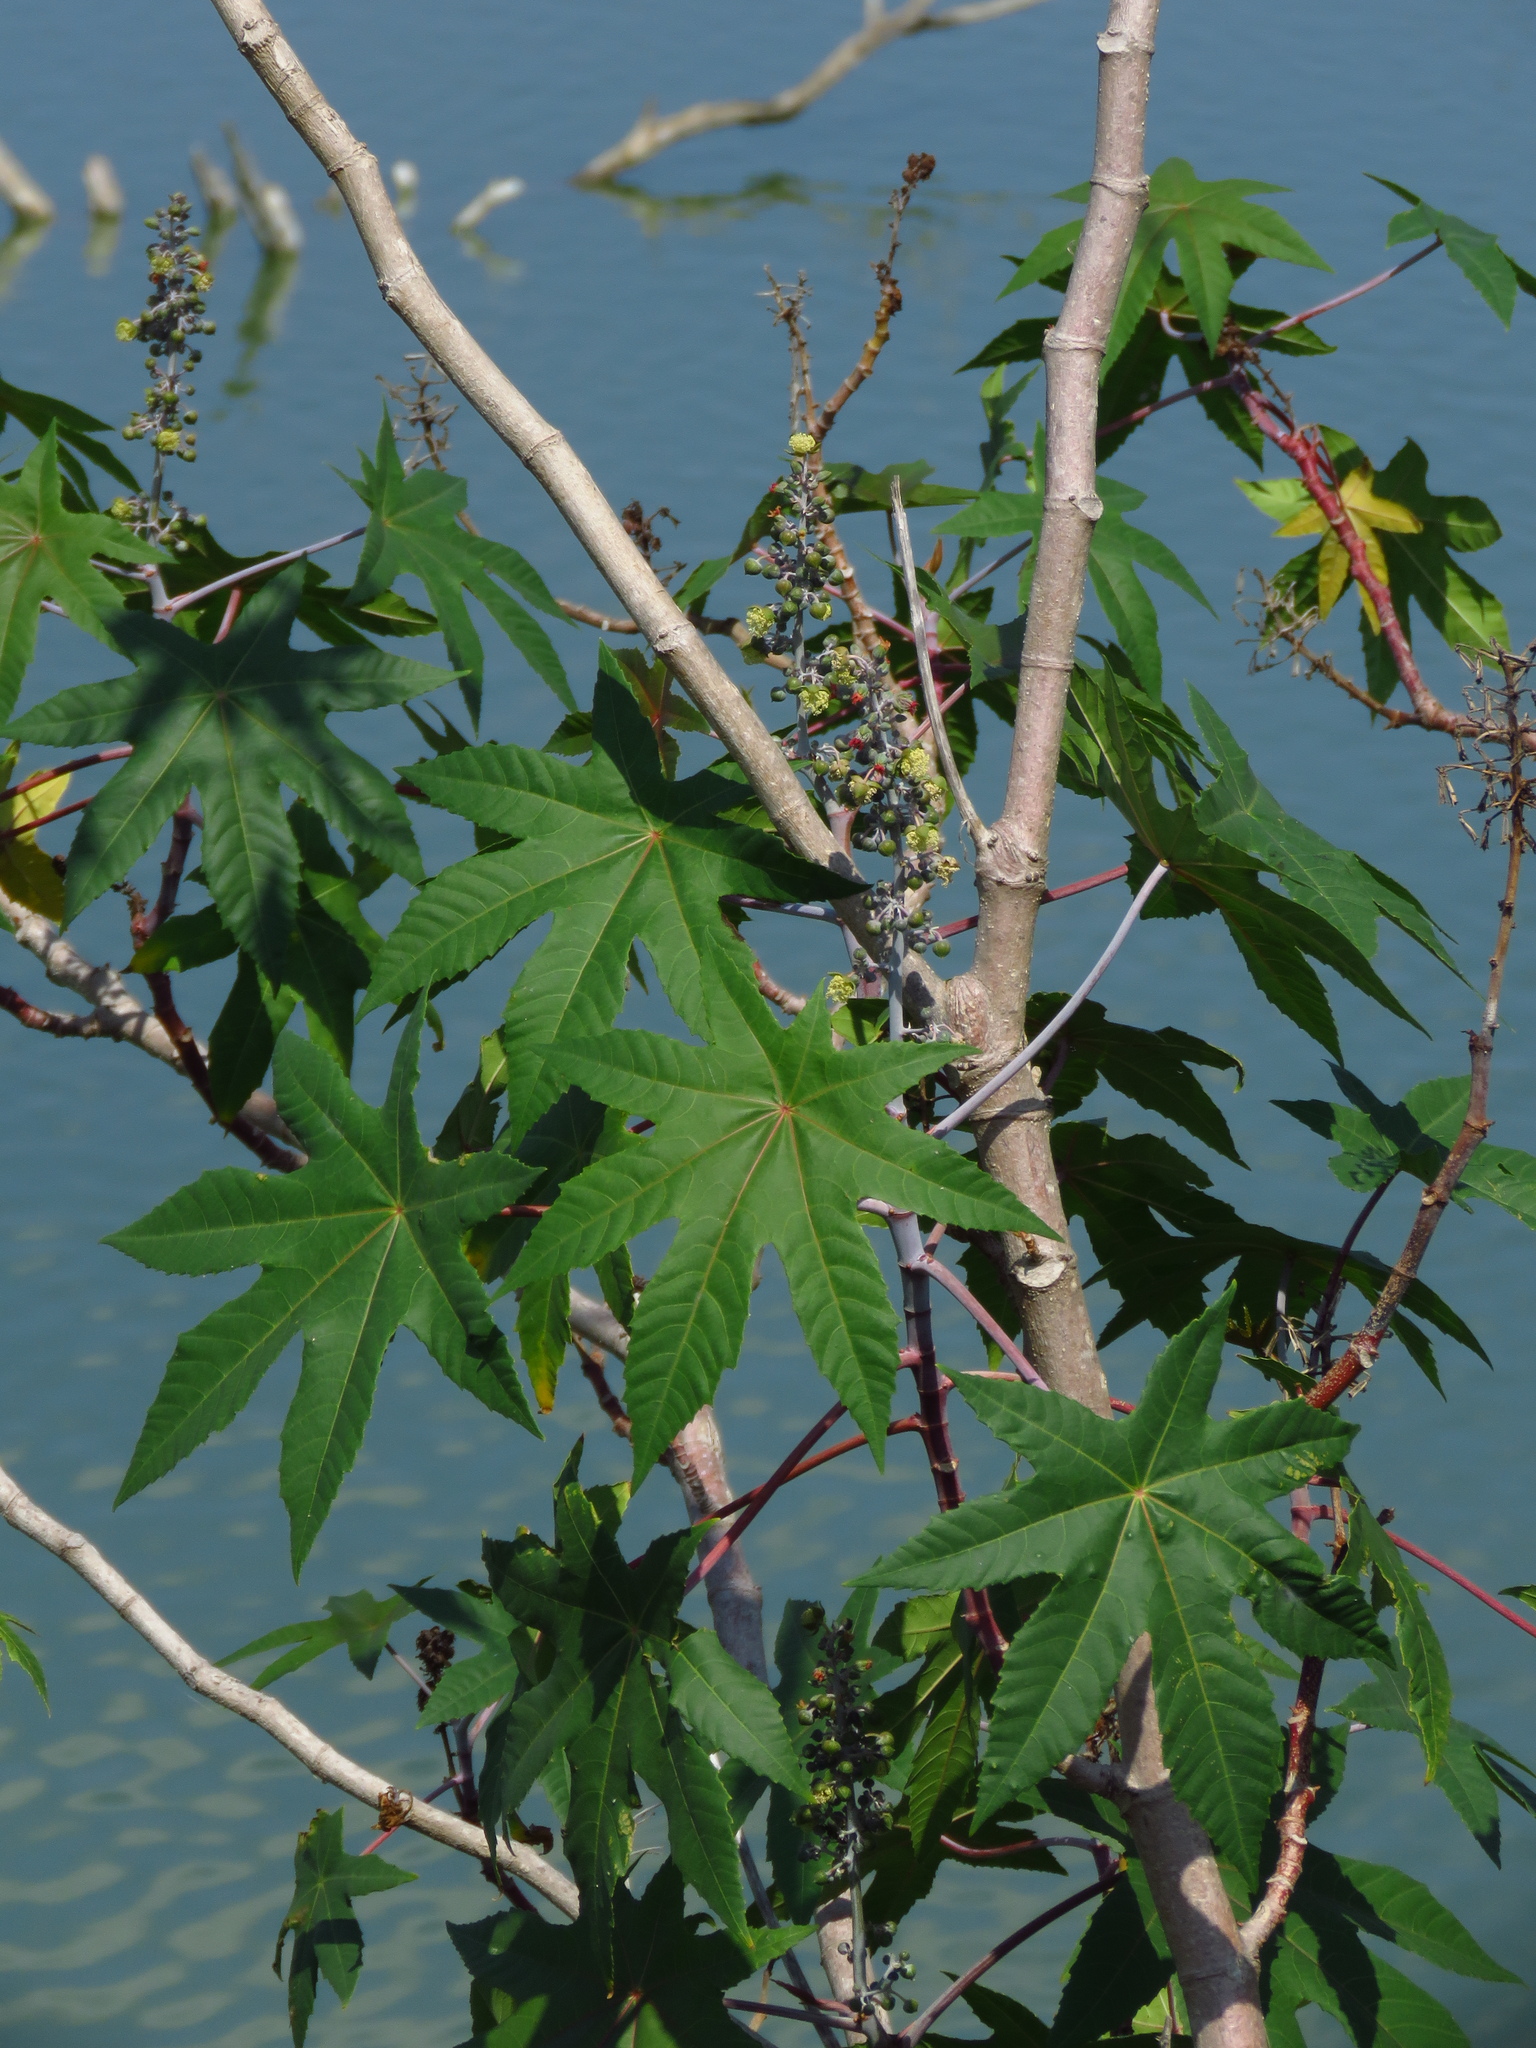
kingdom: Plantae
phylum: Tracheophyta
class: Magnoliopsida
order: Malpighiales
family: Euphorbiaceae
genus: Ricinus
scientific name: Ricinus communis
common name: Castor-oil-plant
